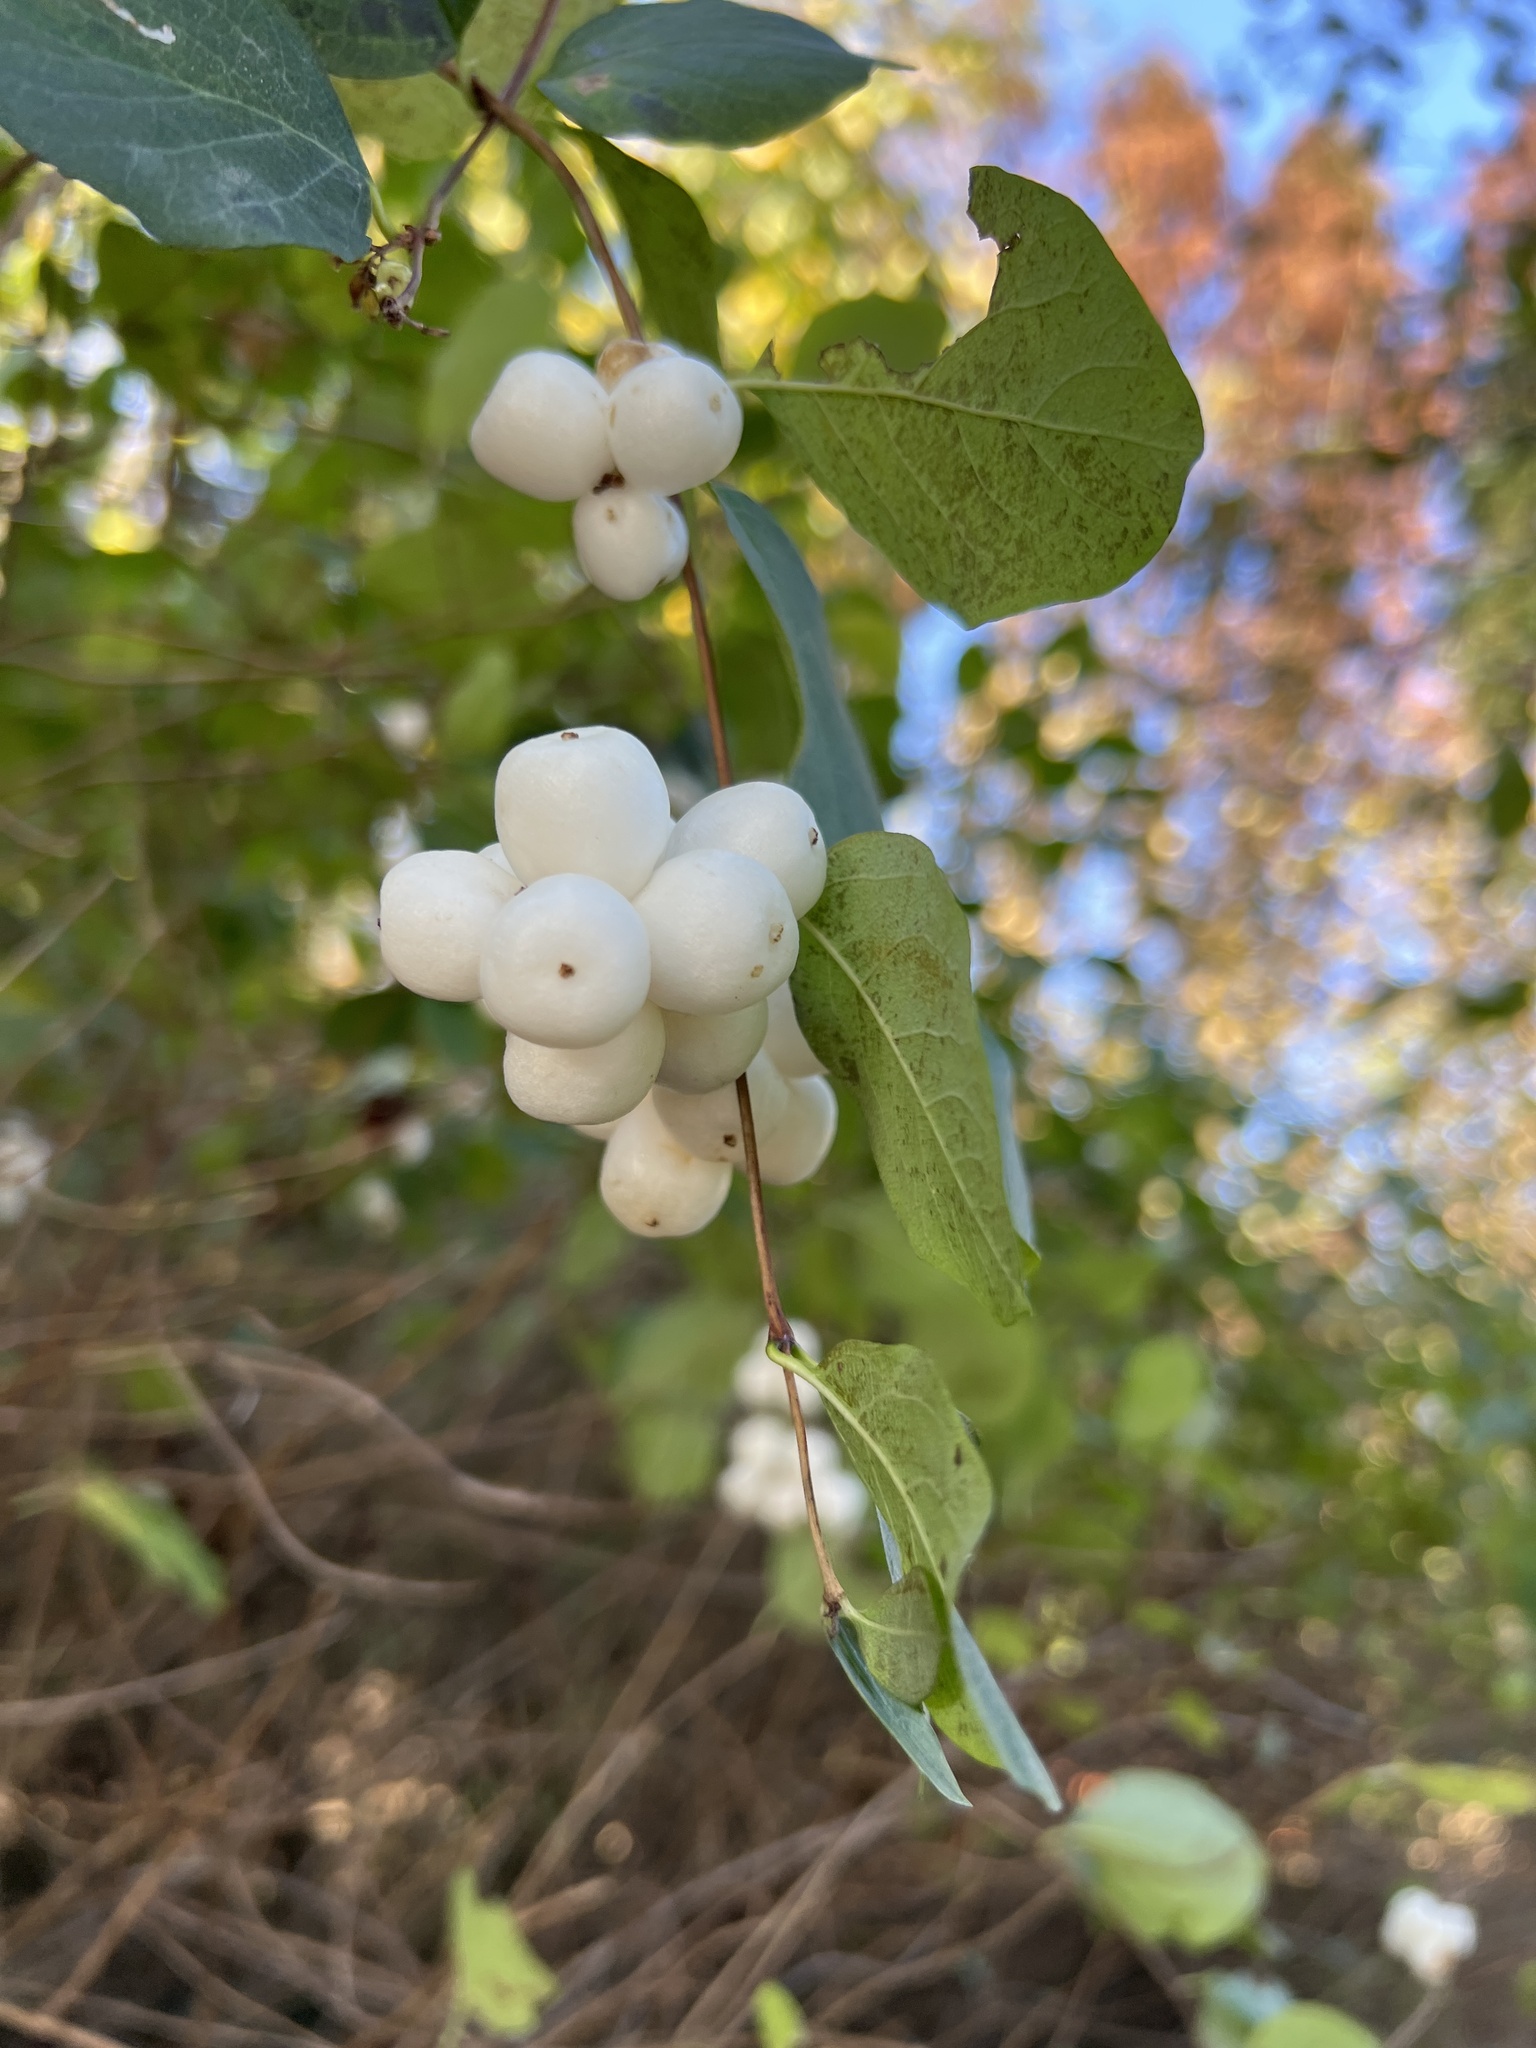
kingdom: Plantae
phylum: Tracheophyta
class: Magnoliopsida
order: Dipsacales
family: Caprifoliaceae
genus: Symphoricarpos
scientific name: Symphoricarpos albus
